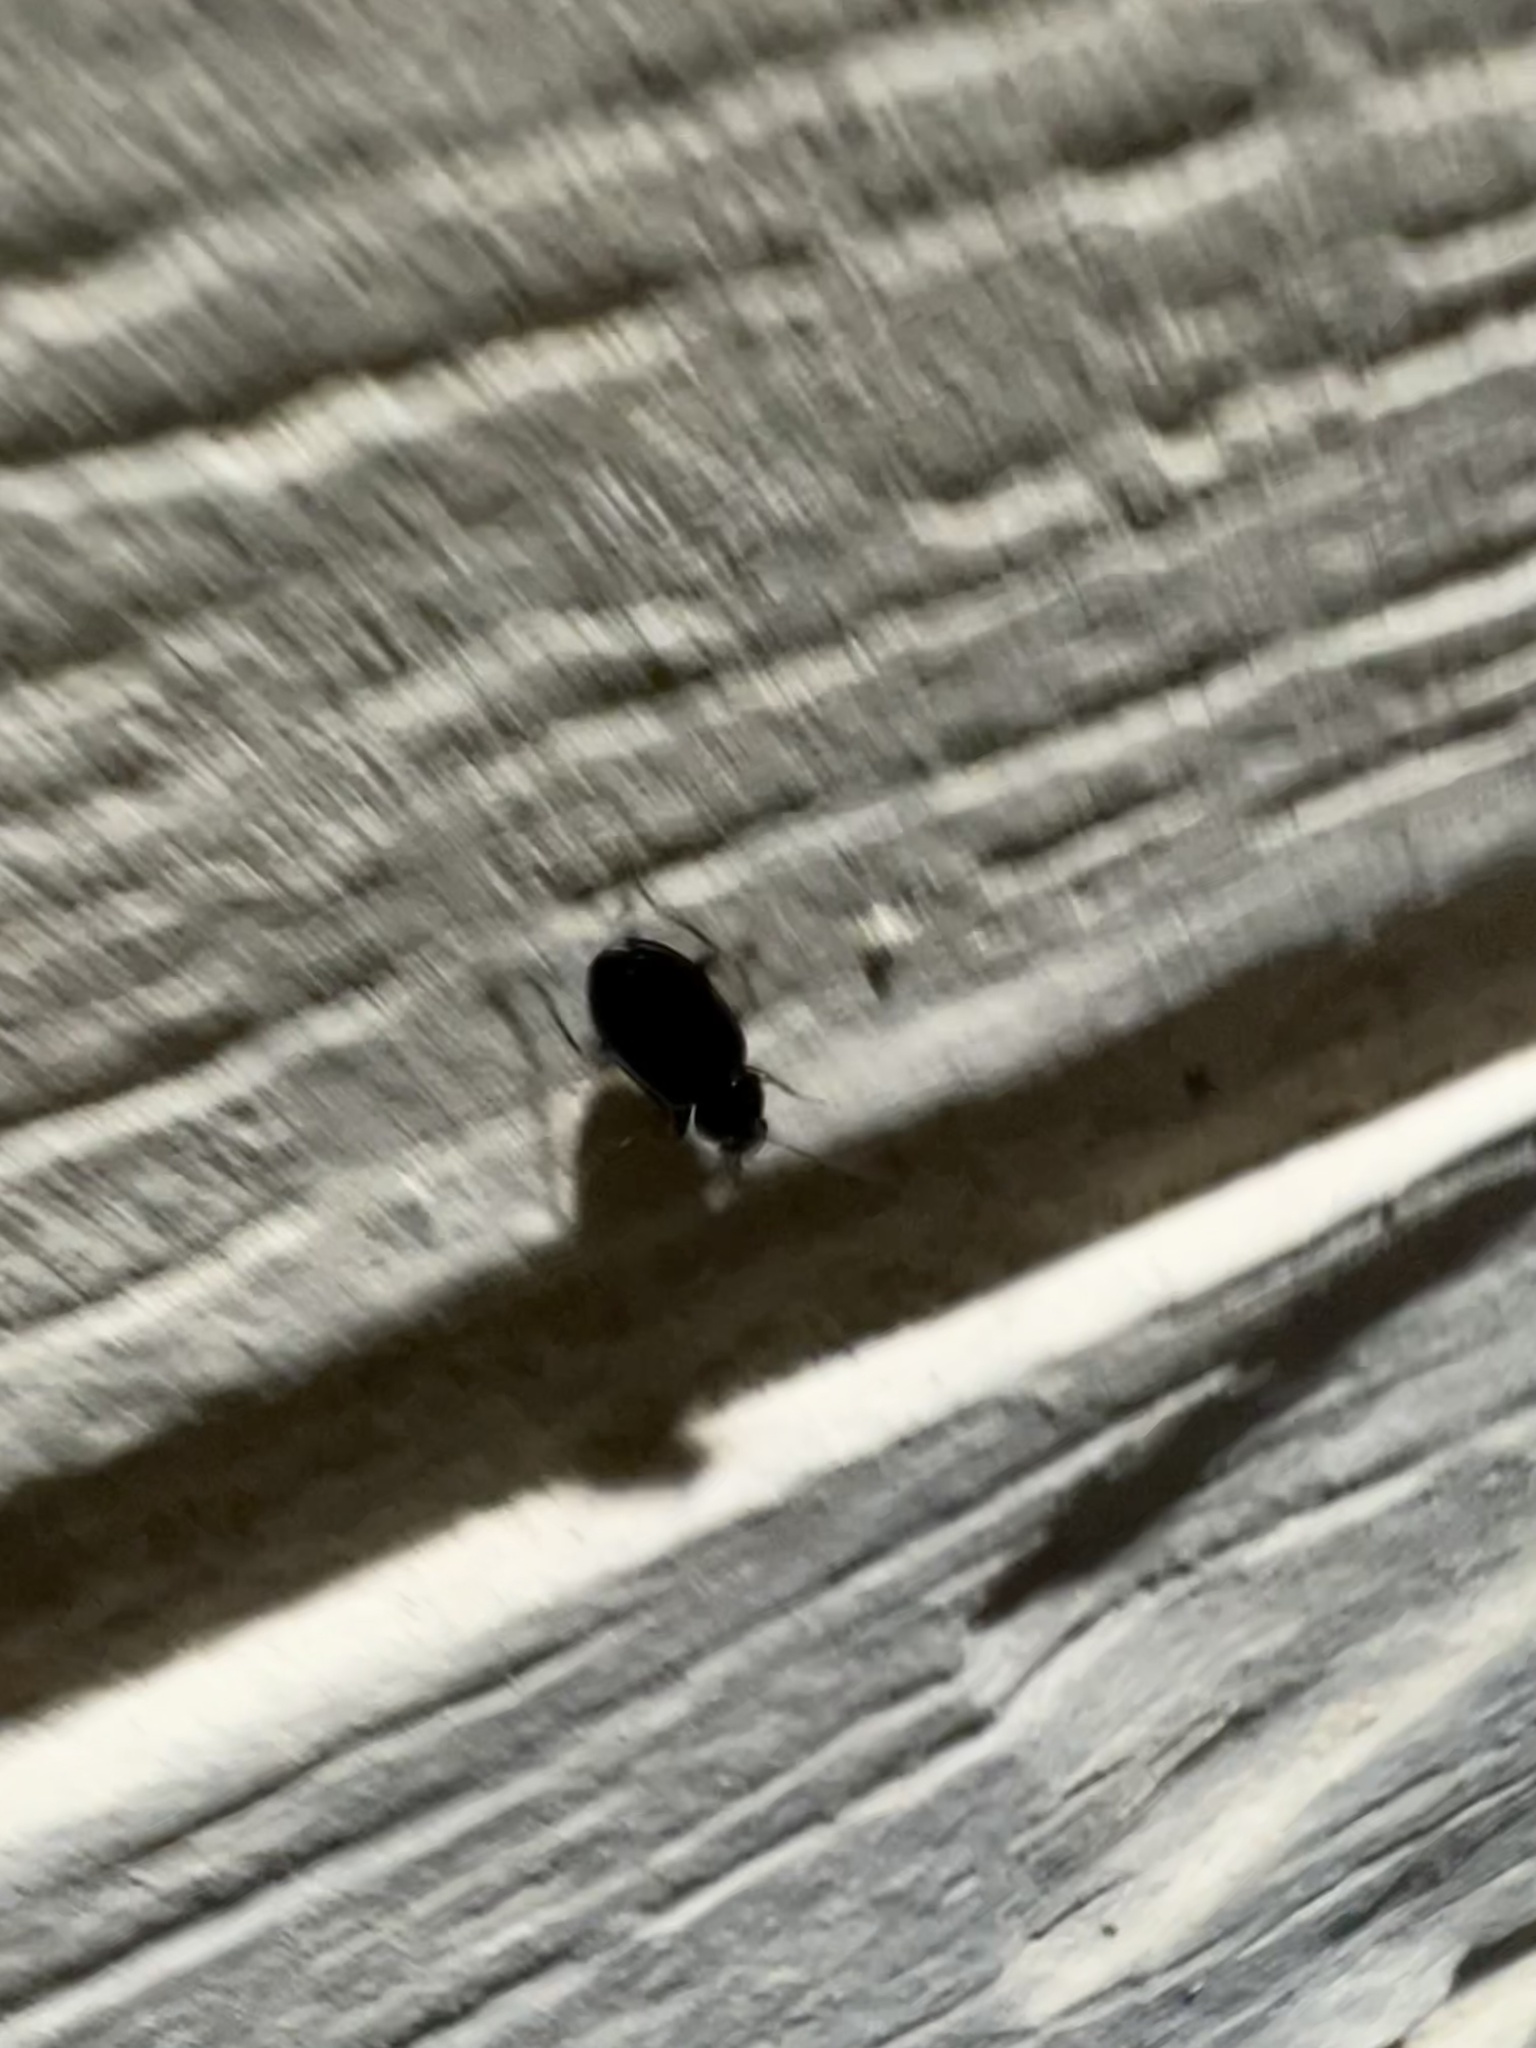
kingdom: Animalia
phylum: Arthropoda
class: Insecta
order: Coleoptera
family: Carabidae
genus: Agonum
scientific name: Agonum punctiforme
